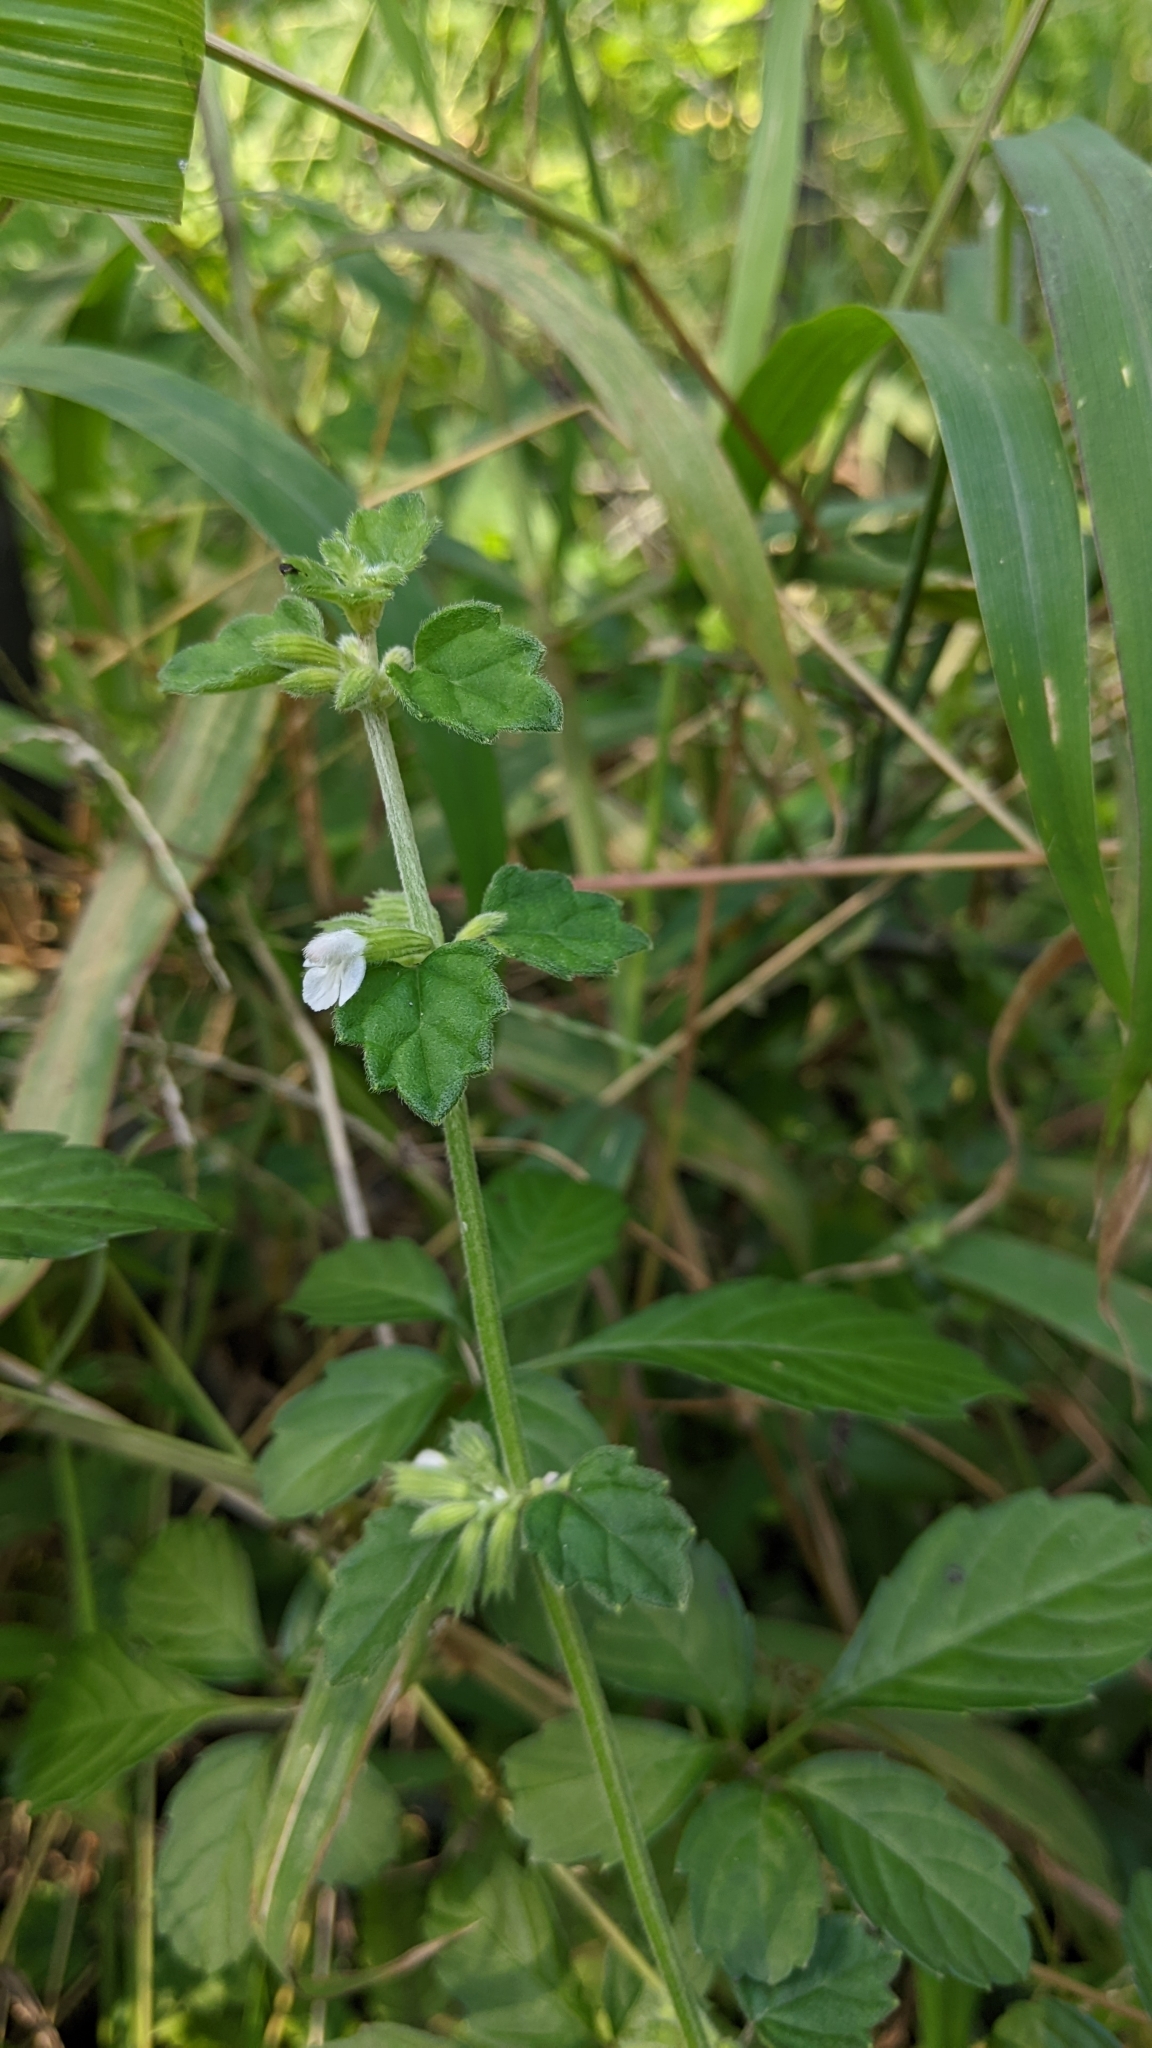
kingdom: Plantae
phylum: Tracheophyta
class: Magnoliopsida
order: Lamiales
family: Lamiaceae
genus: Leucas
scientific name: Leucas chinensis
